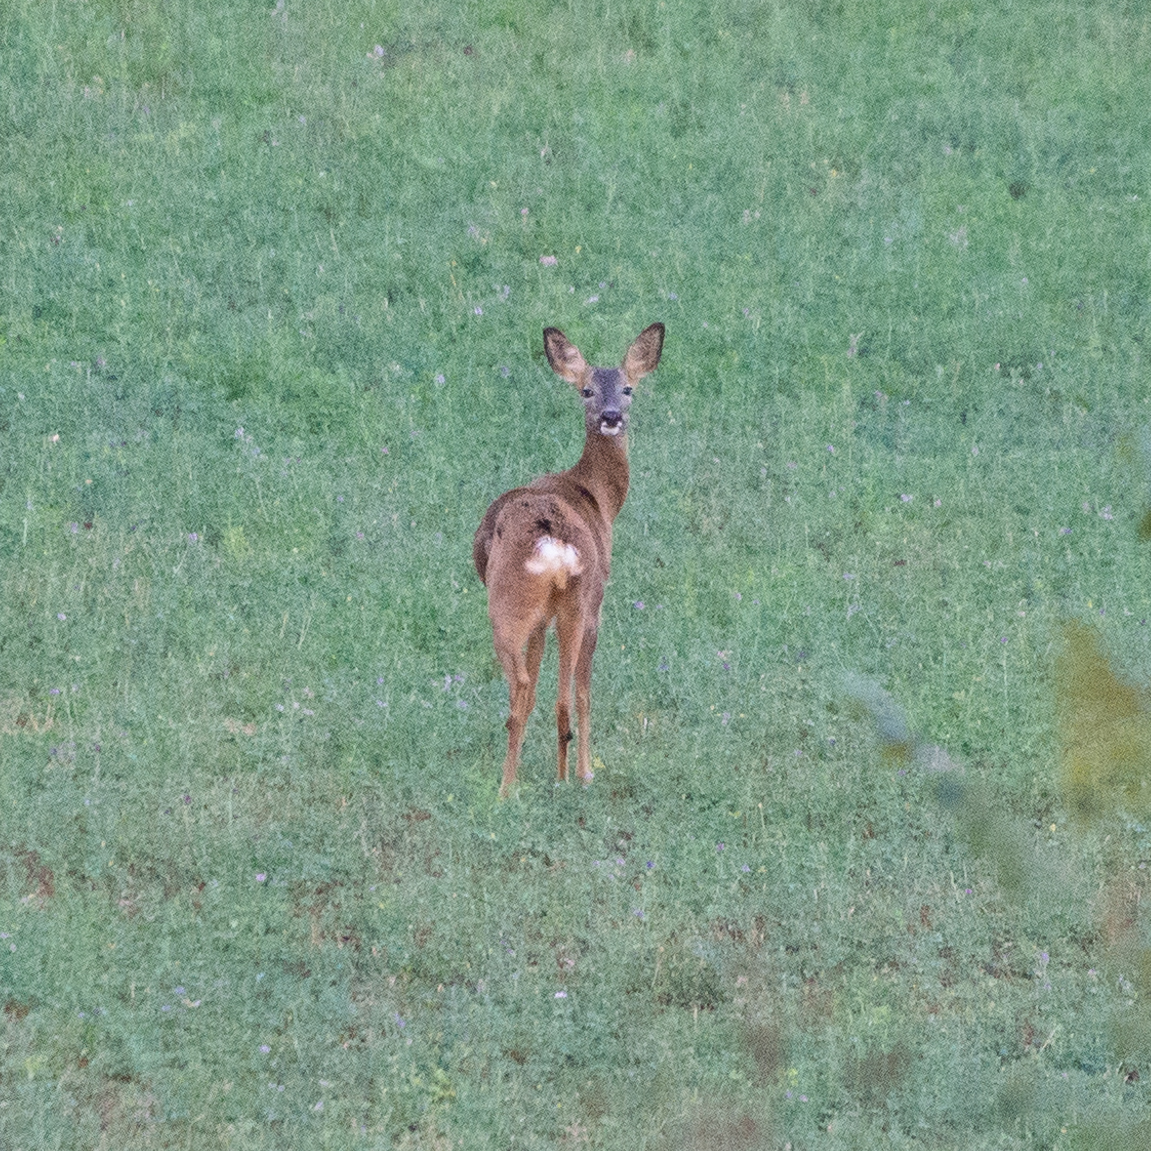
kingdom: Animalia
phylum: Chordata
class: Mammalia
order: Artiodactyla
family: Cervidae
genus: Capreolus
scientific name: Capreolus capreolus
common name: Western roe deer
